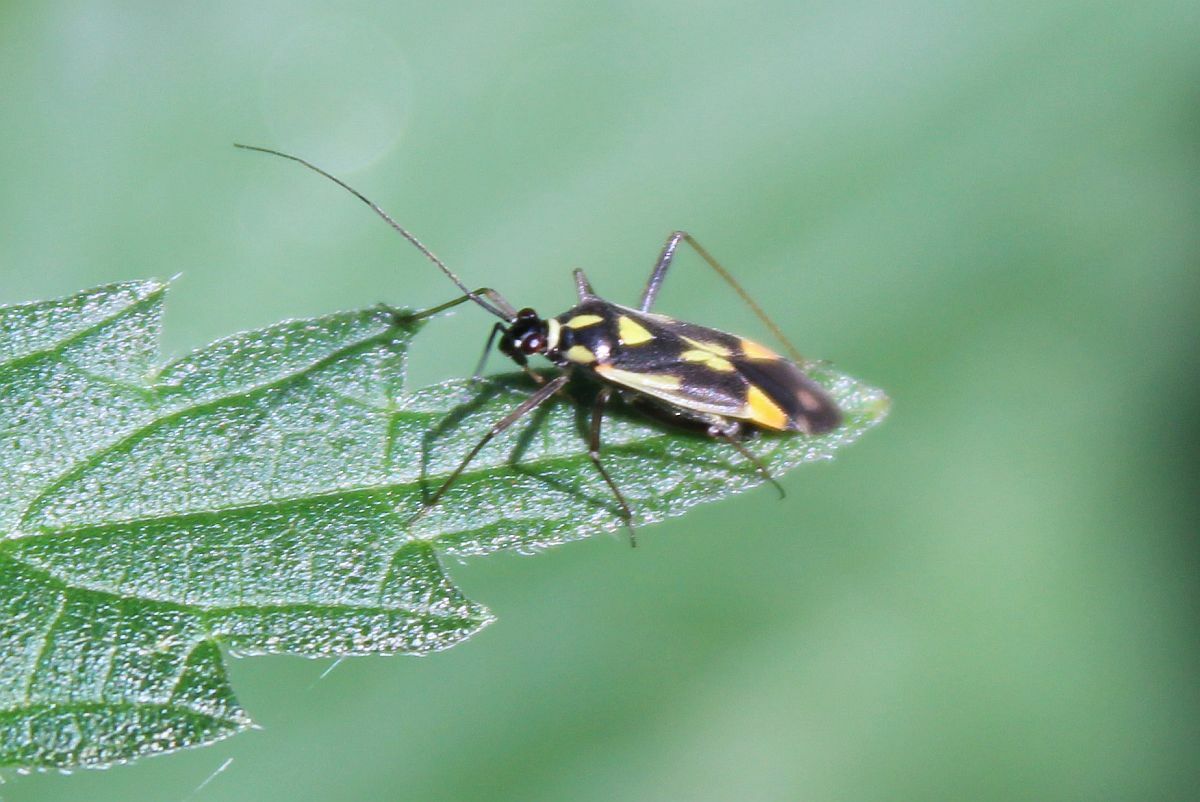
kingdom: Animalia
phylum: Arthropoda
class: Insecta
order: Hemiptera
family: Miridae
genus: Grypocoris
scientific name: Grypocoris stysi
